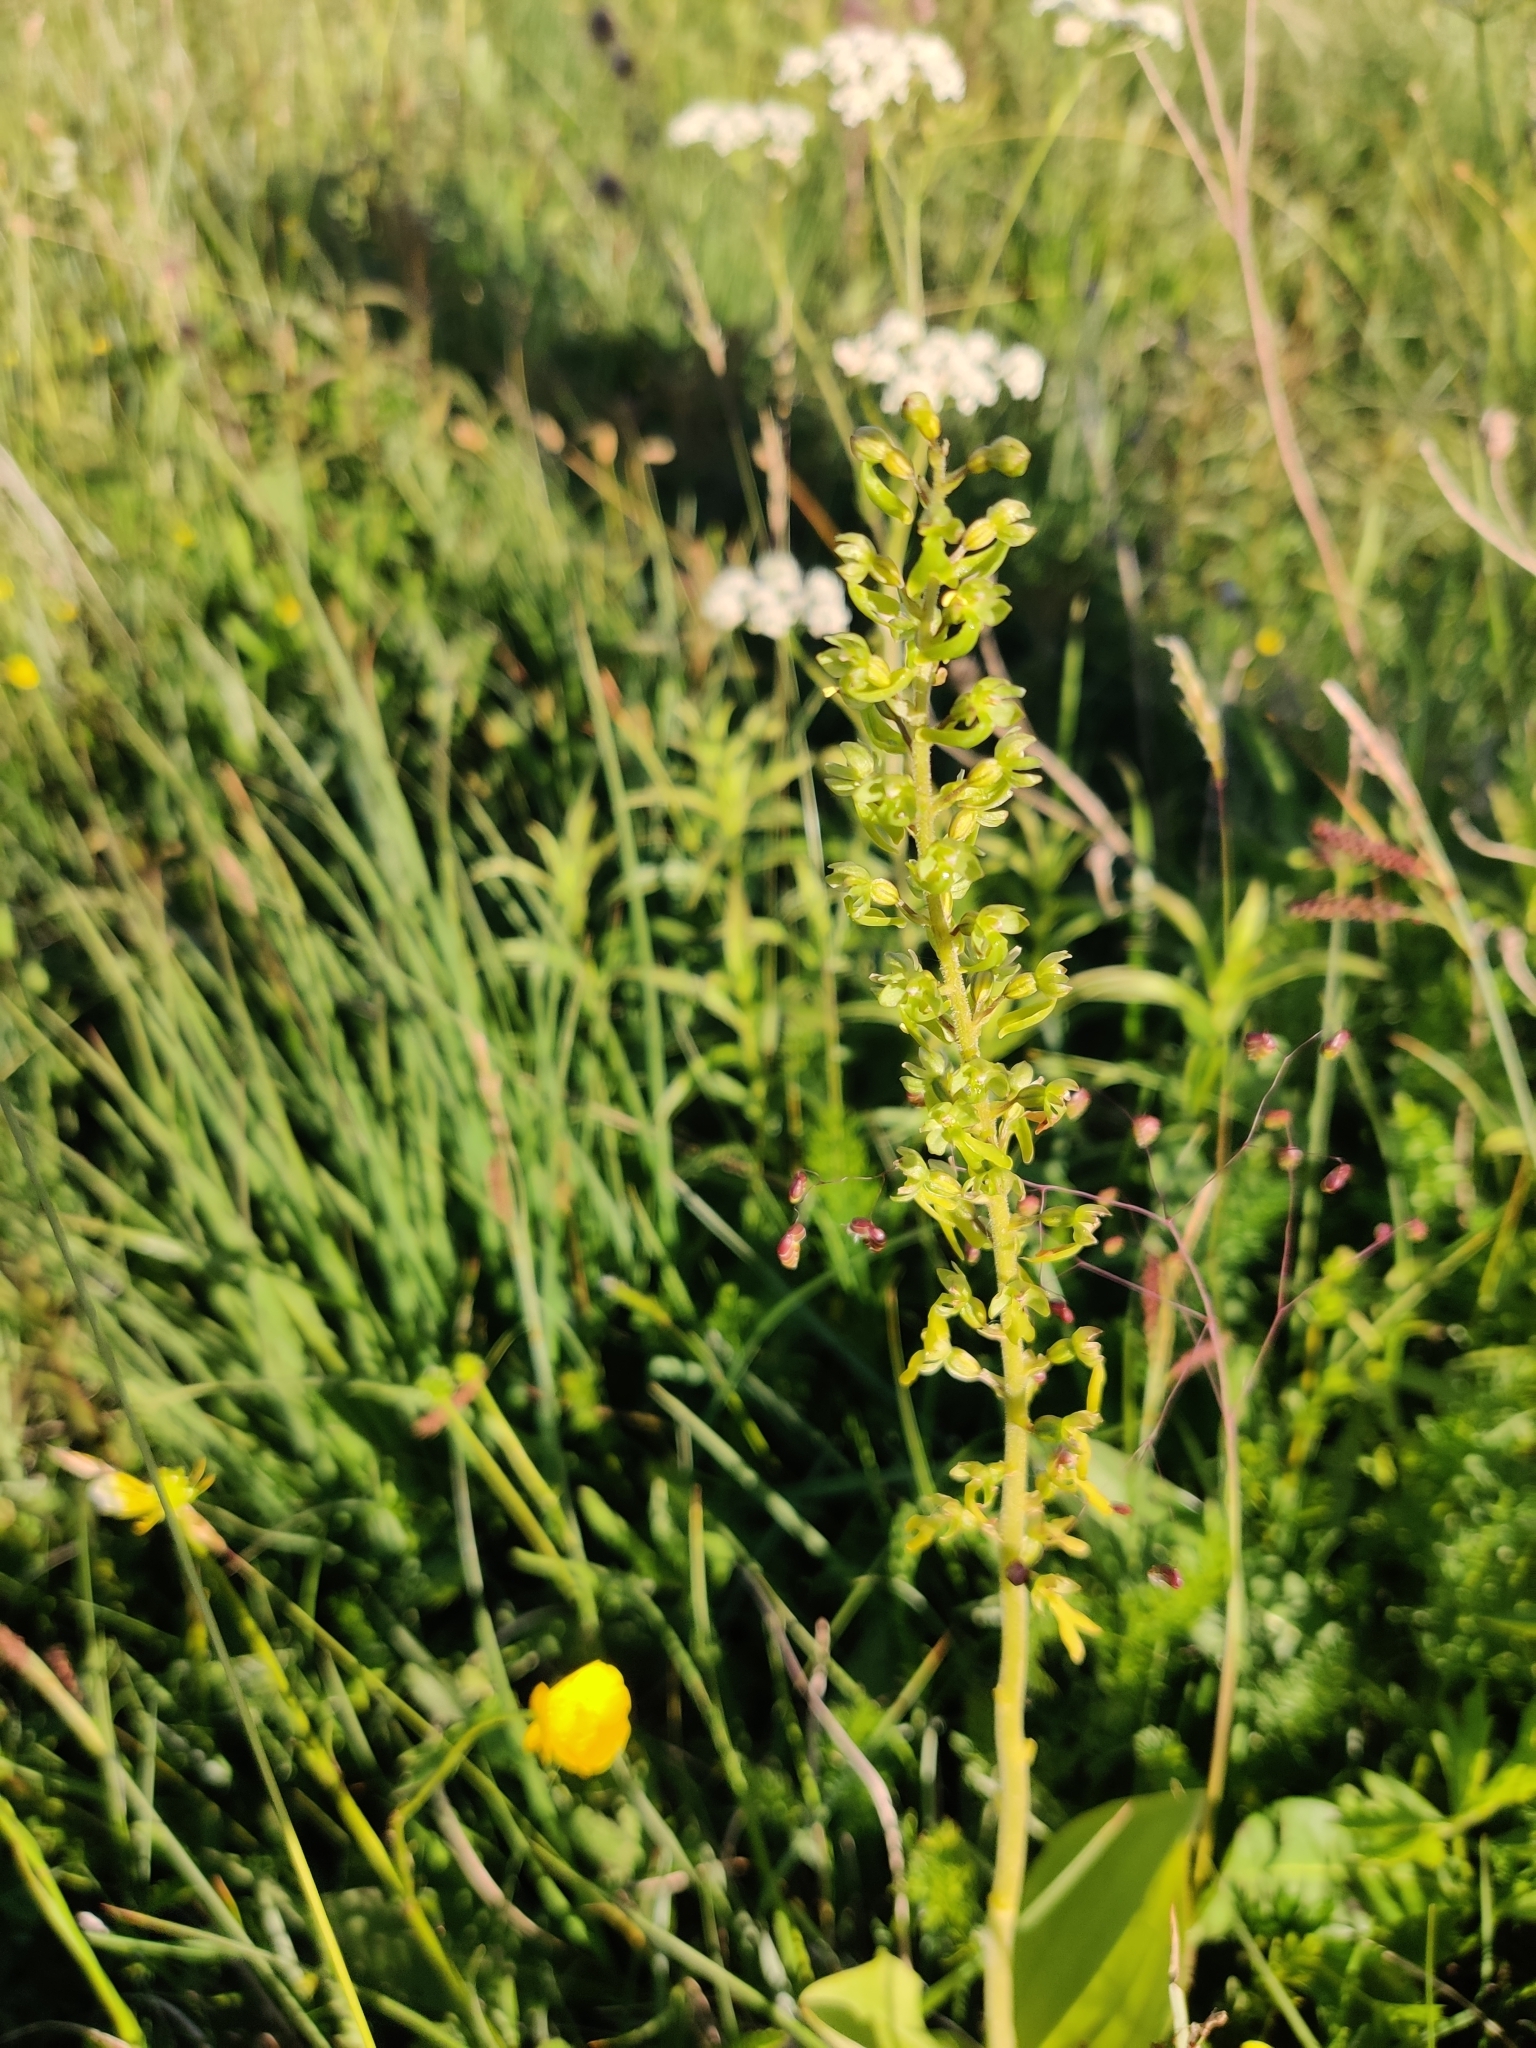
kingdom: Plantae
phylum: Tracheophyta
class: Liliopsida
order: Asparagales
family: Orchidaceae
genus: Neottia
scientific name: Neottia ovata
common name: Common twayblade
